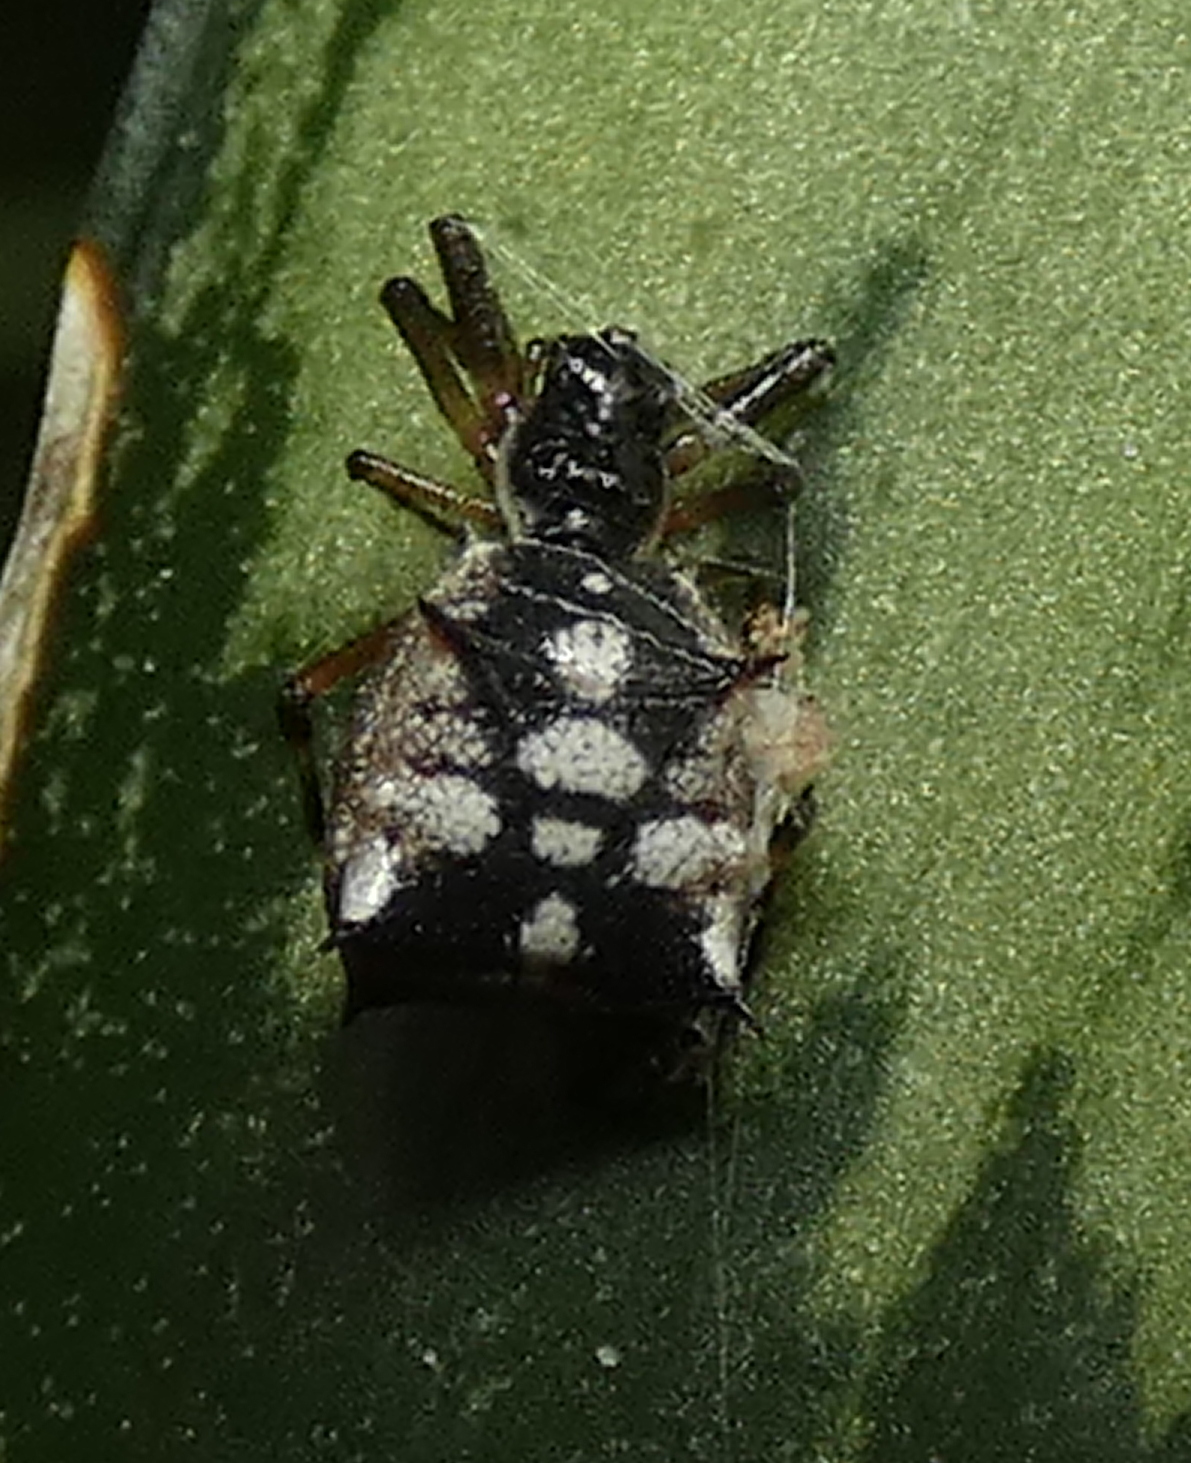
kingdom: Animalia
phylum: Arthropoda
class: Arachnida
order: Araneae
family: Araneidae
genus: Micrathena
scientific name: Micrathena picta
